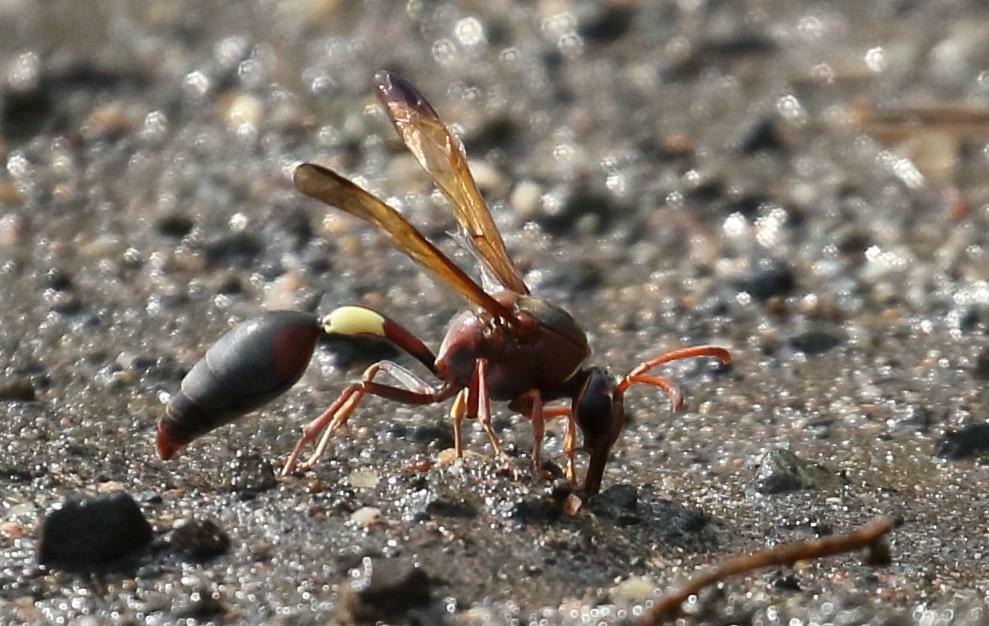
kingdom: Animalia
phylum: Arthropoda
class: Insecta
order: Hymenoptera
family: Eumenidae
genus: Delta
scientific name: Delta fenestrale
